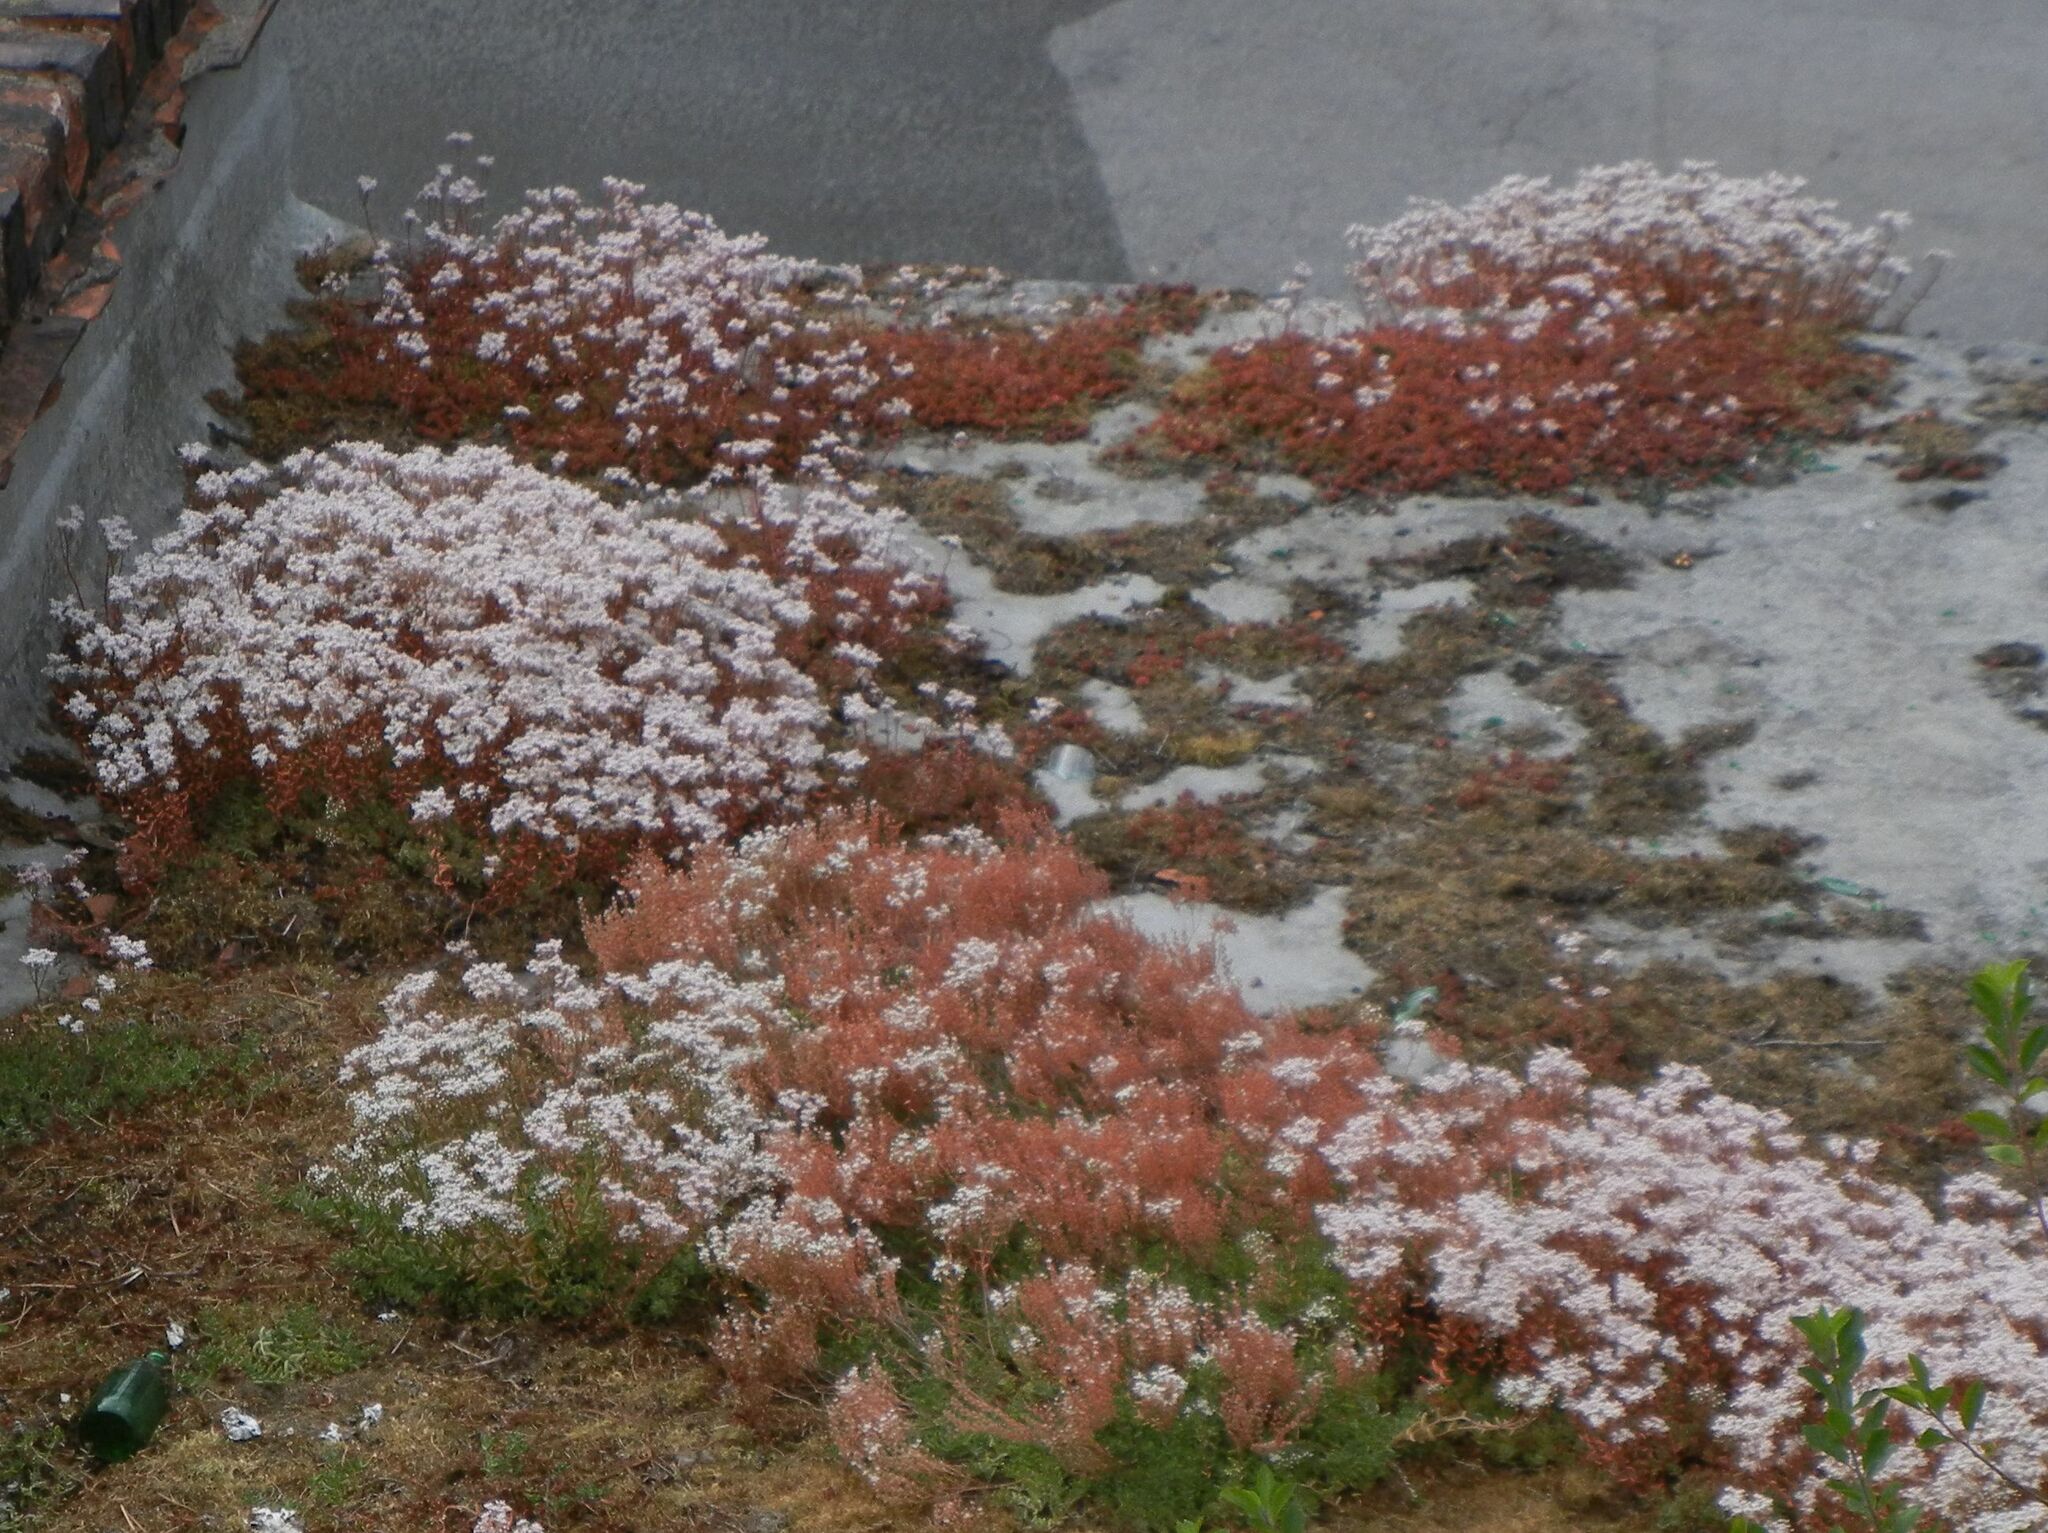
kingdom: Plantae
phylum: Tracheophyta
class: Magnoliopsida
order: Saxifragales
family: Crassulaceae
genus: Sedum
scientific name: Sedum album
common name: White stonecrop
